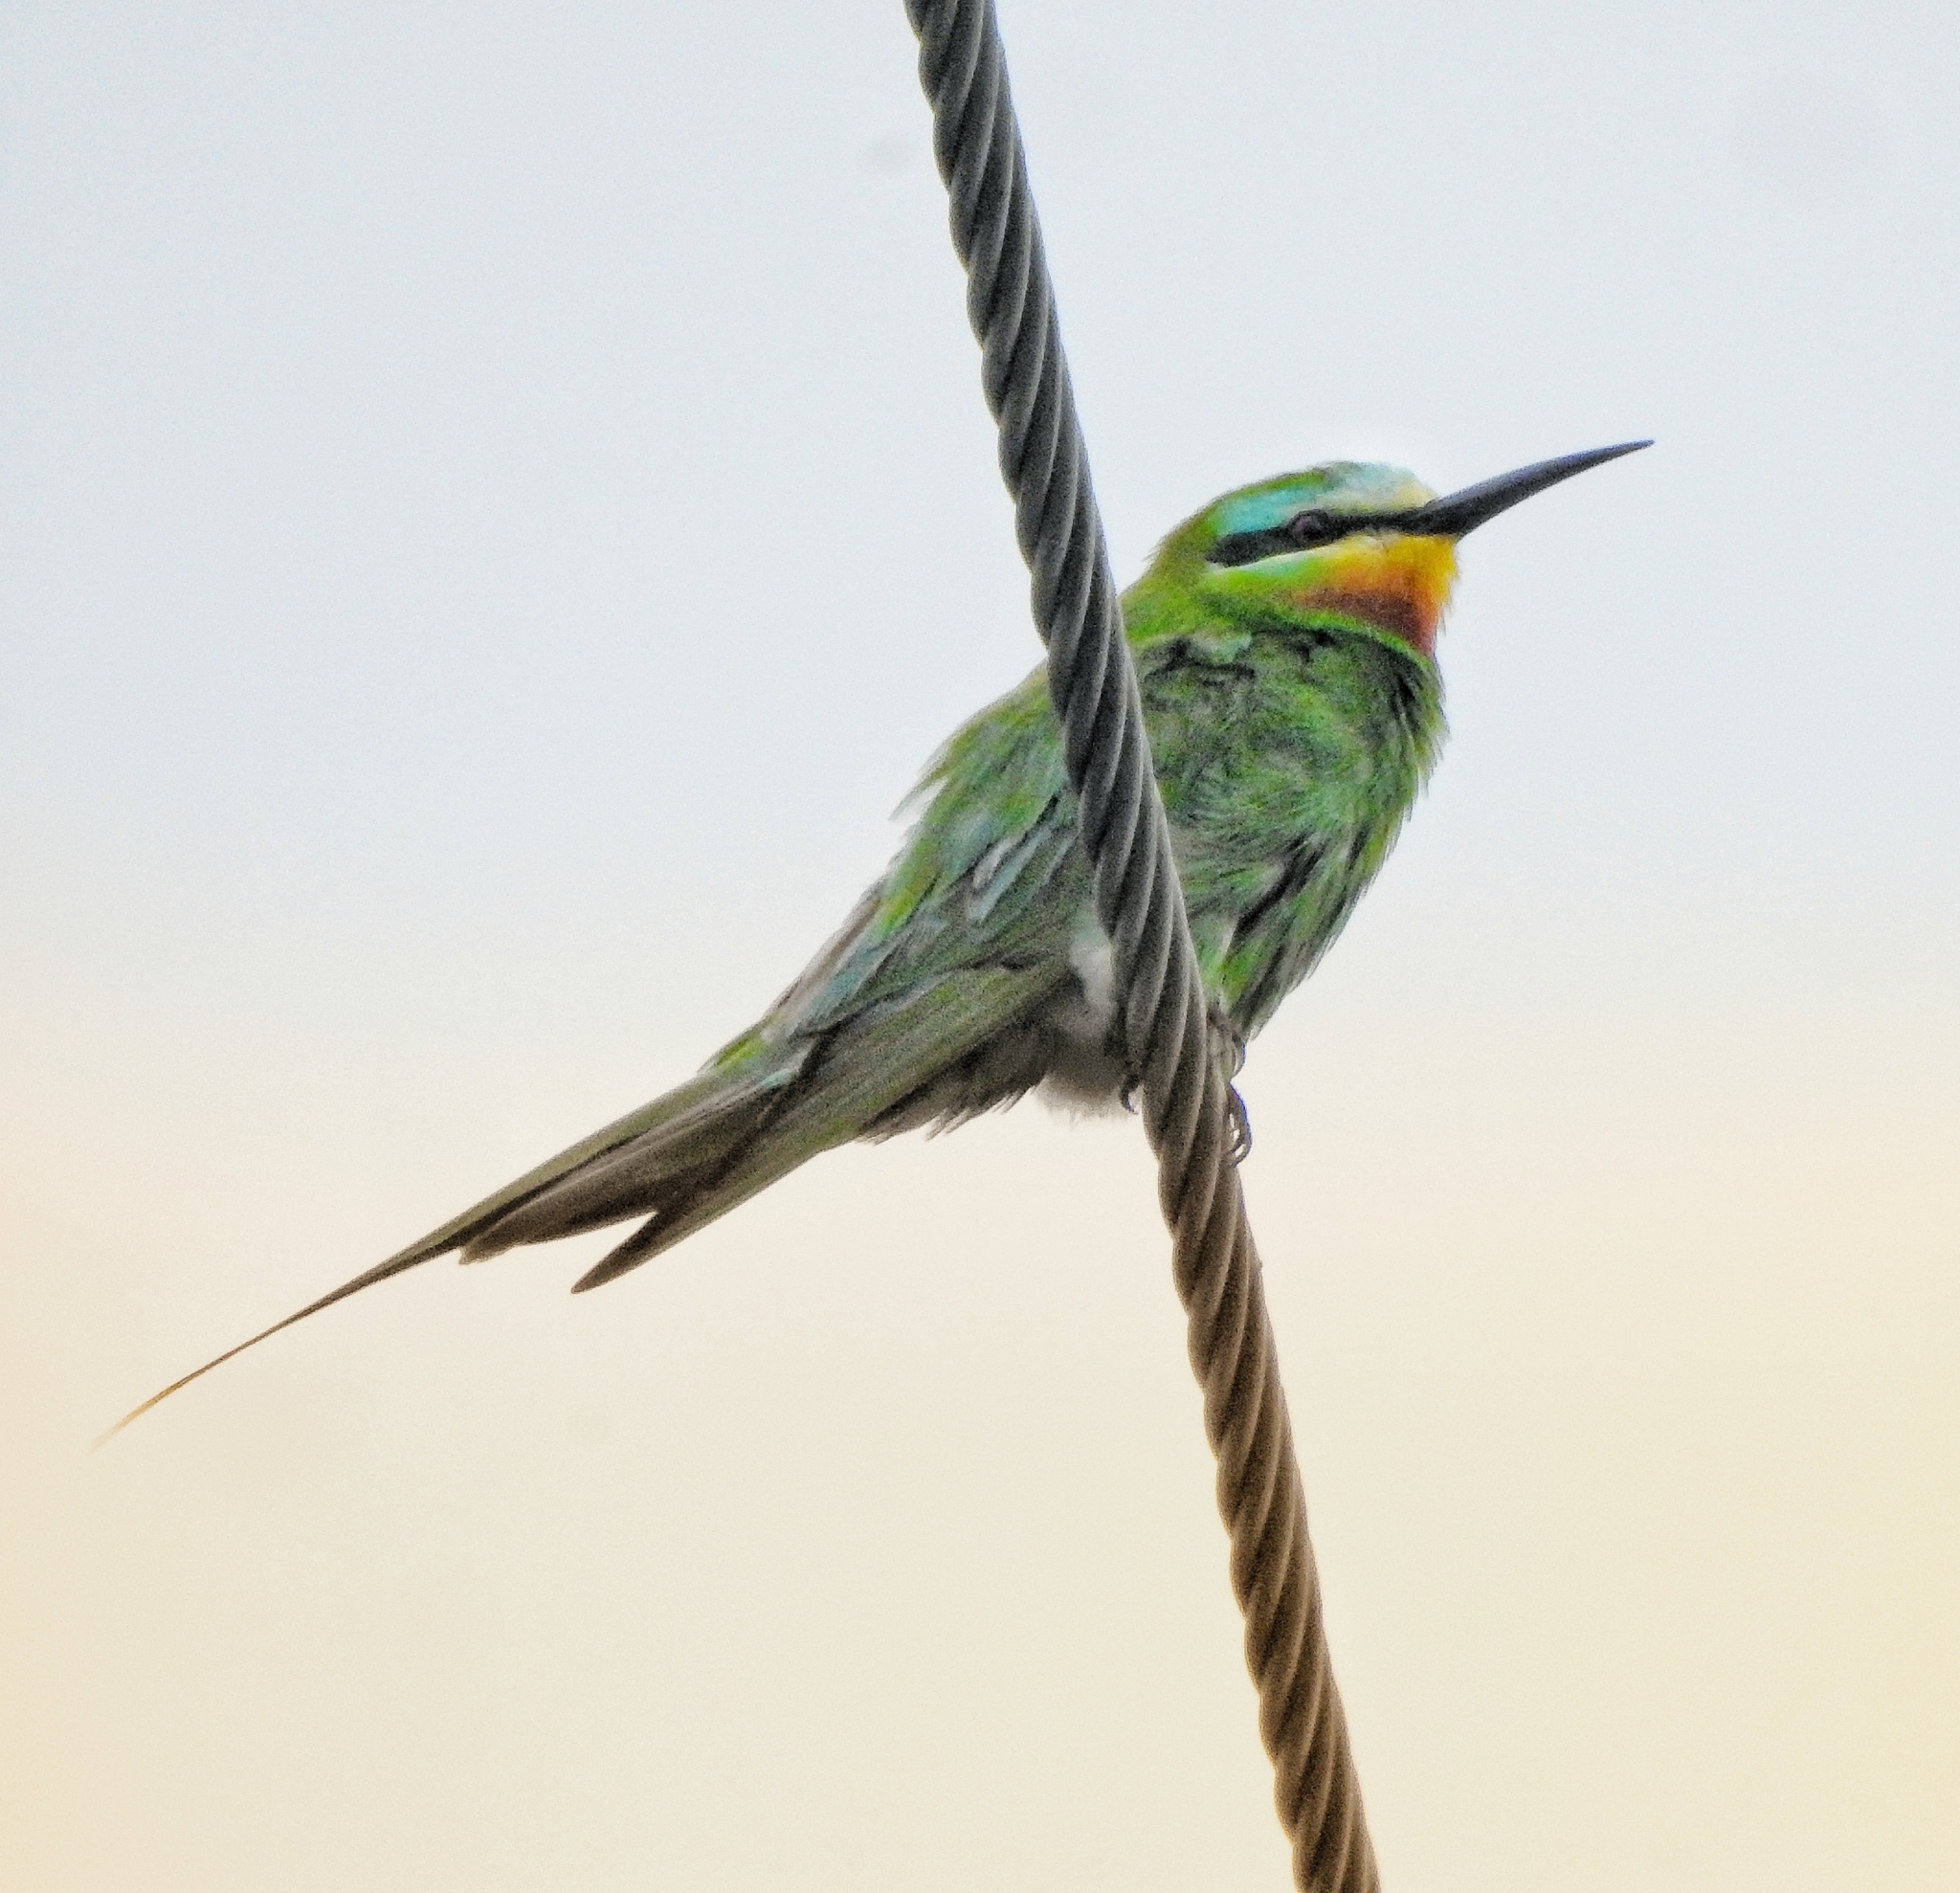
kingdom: Animalia
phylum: Chordata
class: Aves
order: Coraciiformes
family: Meropidae
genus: Merops
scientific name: Merops persicus
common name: Blue-cheeked bee-eater
